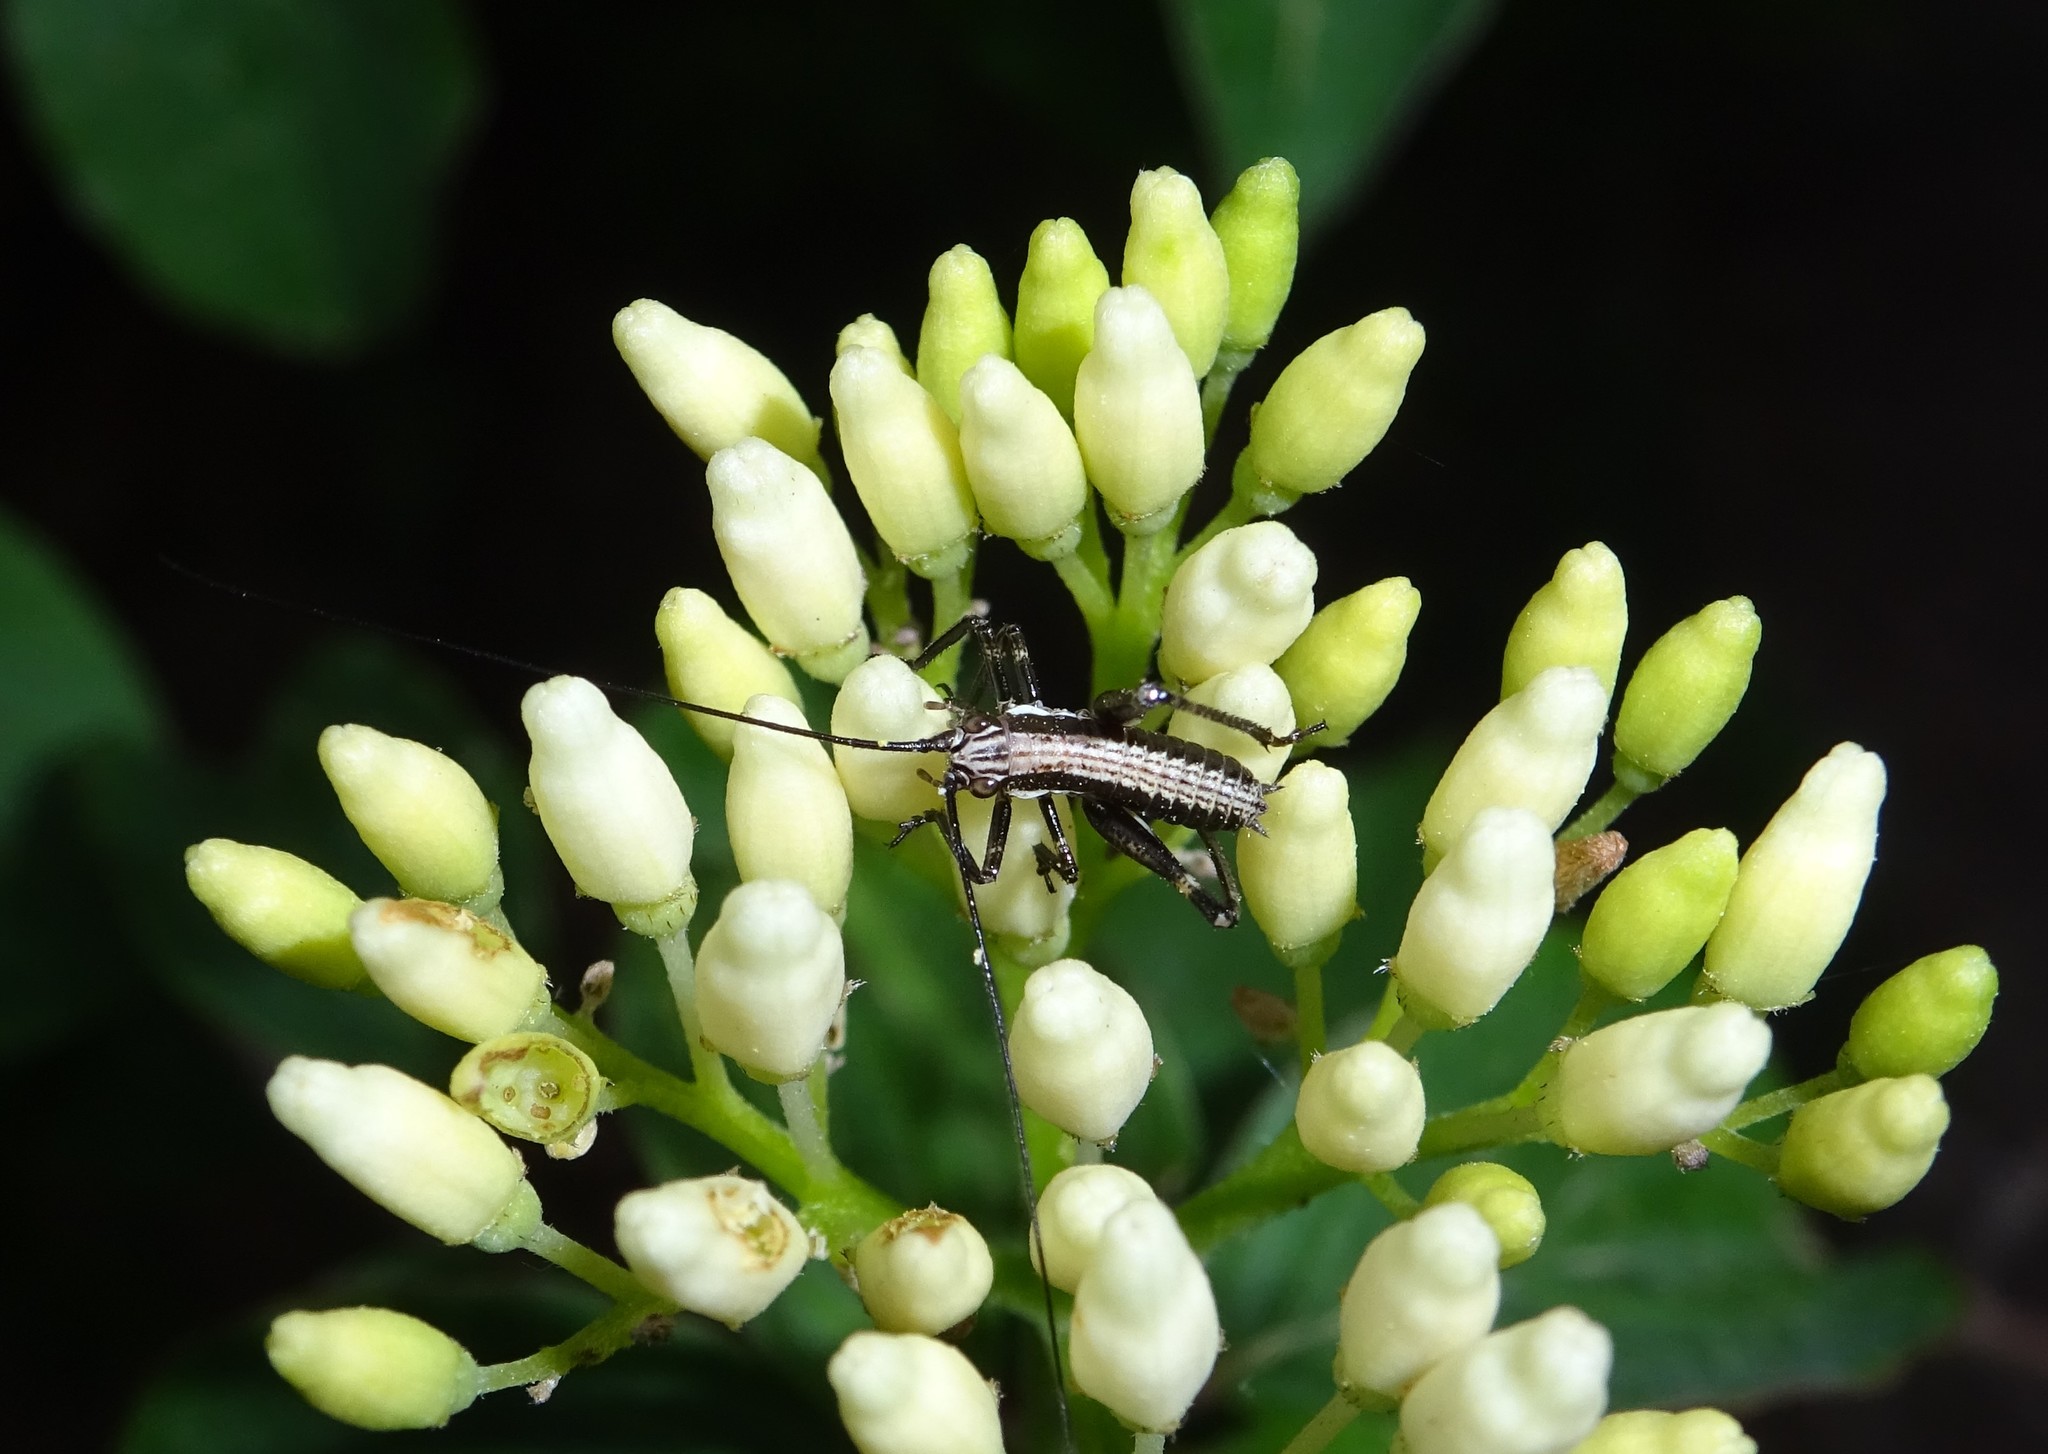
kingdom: Animalia
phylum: Arthropoda
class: Insecta
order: Orthoptera
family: Tettigoniidae
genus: Antaxius
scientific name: Antaxius pedestris
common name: Common mountain bush-cricket
